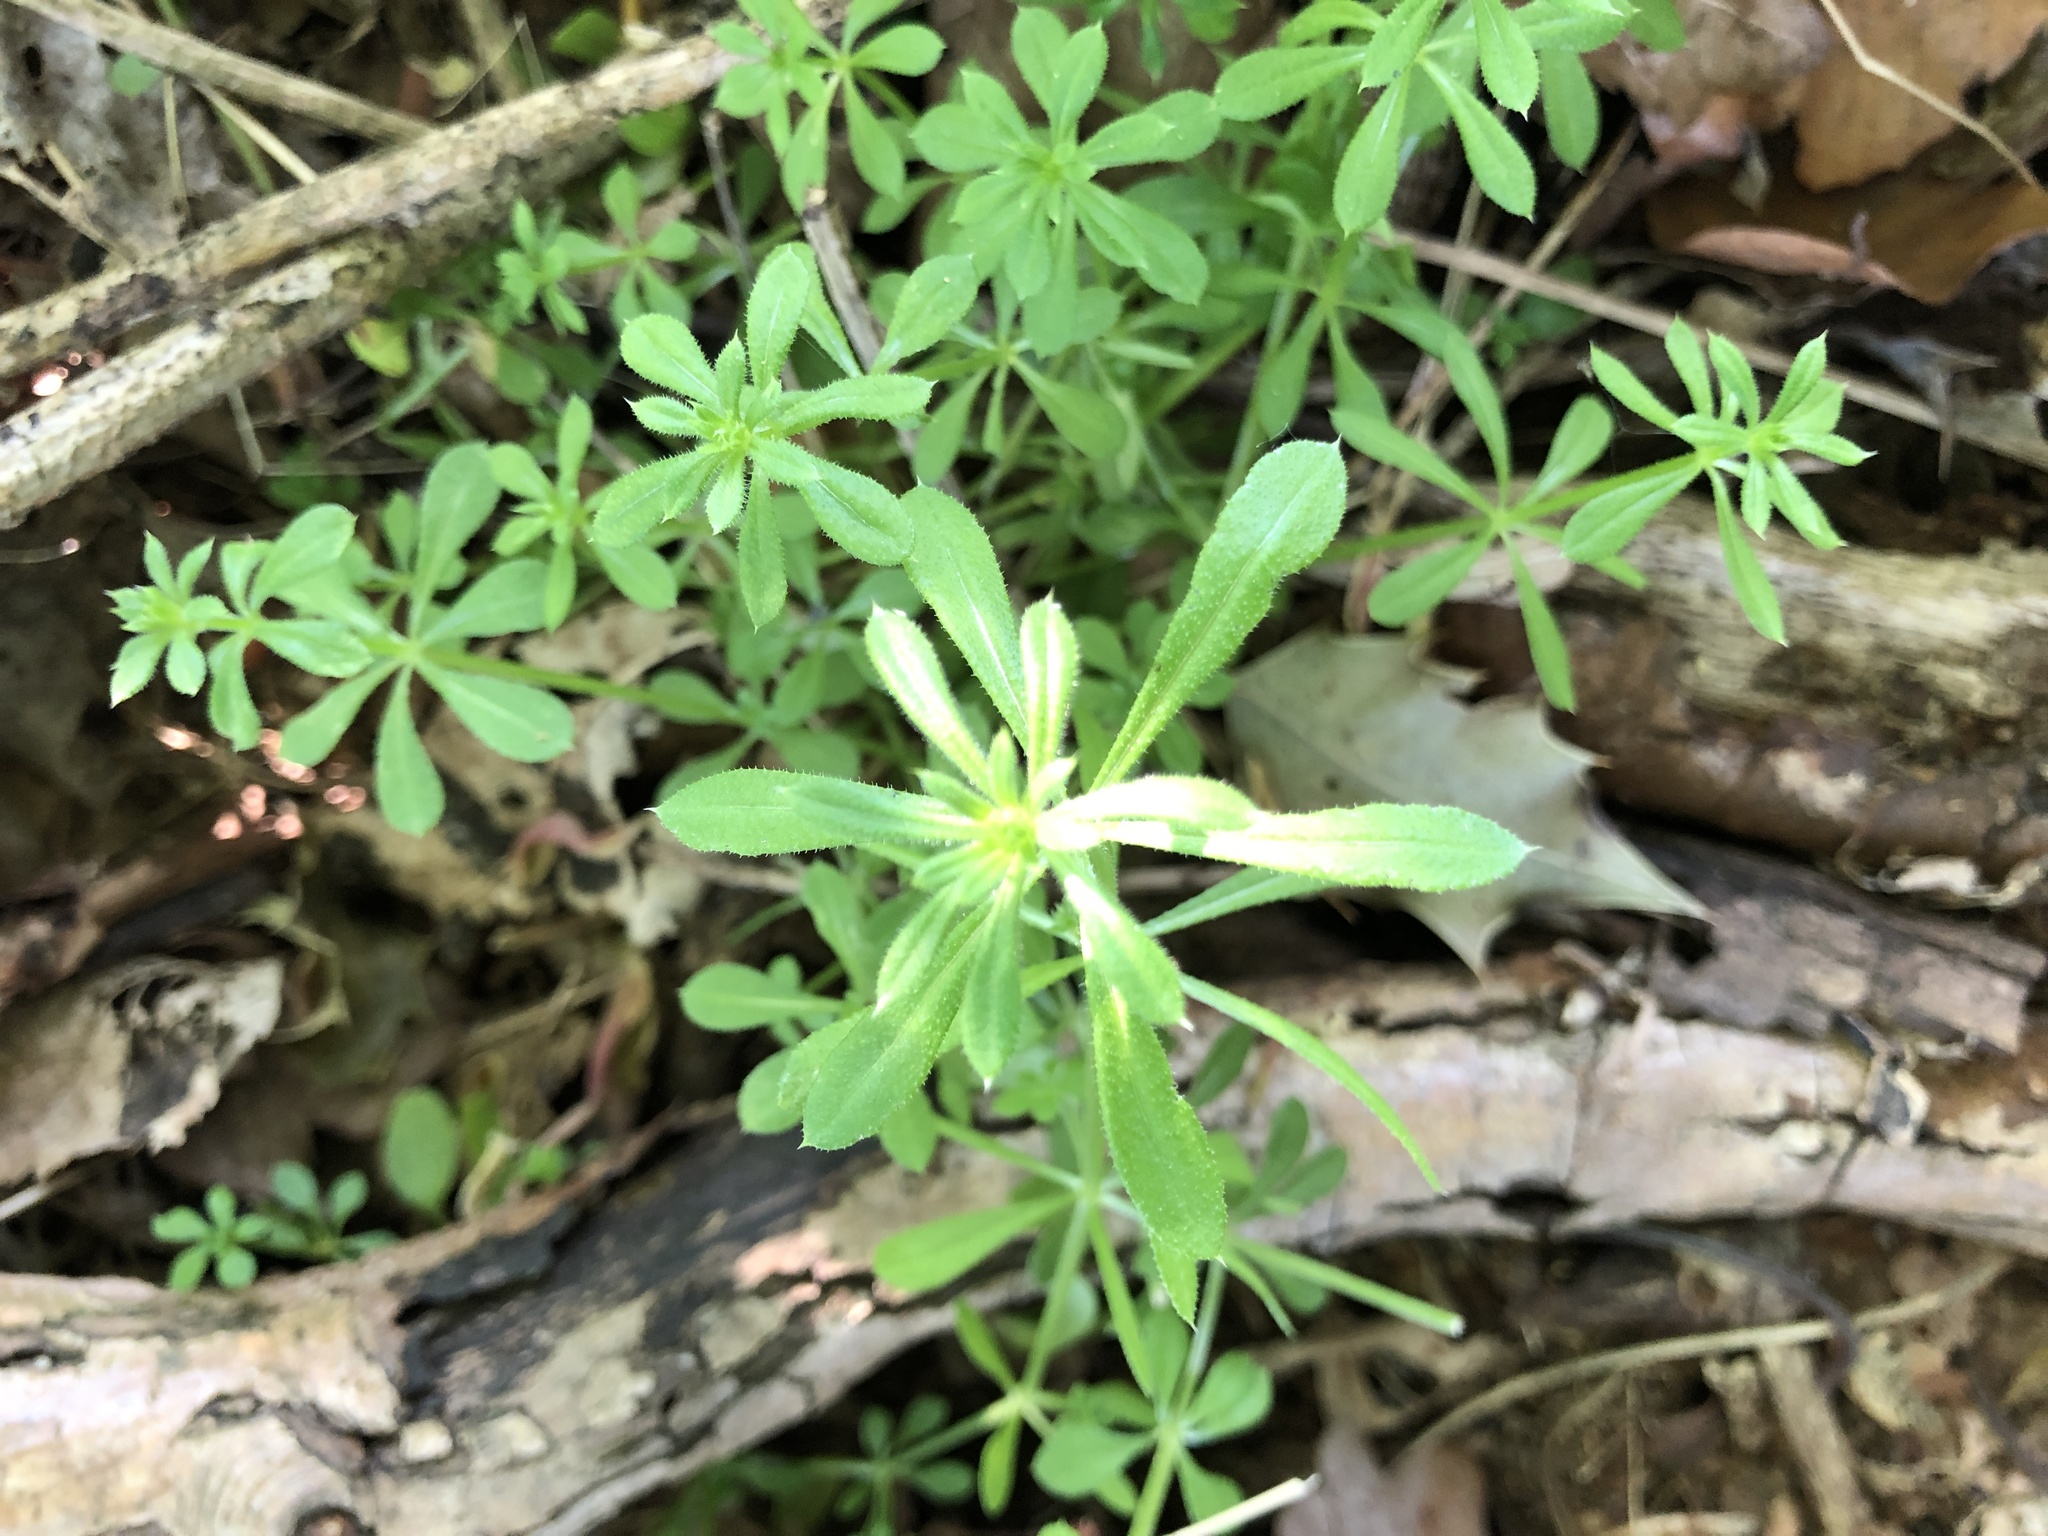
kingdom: Plantae
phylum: Tracheophyta
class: Magnoliopsida
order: Gentianales
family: Rubiaceae
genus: Galium
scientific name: Galium aparine
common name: Cleavers
